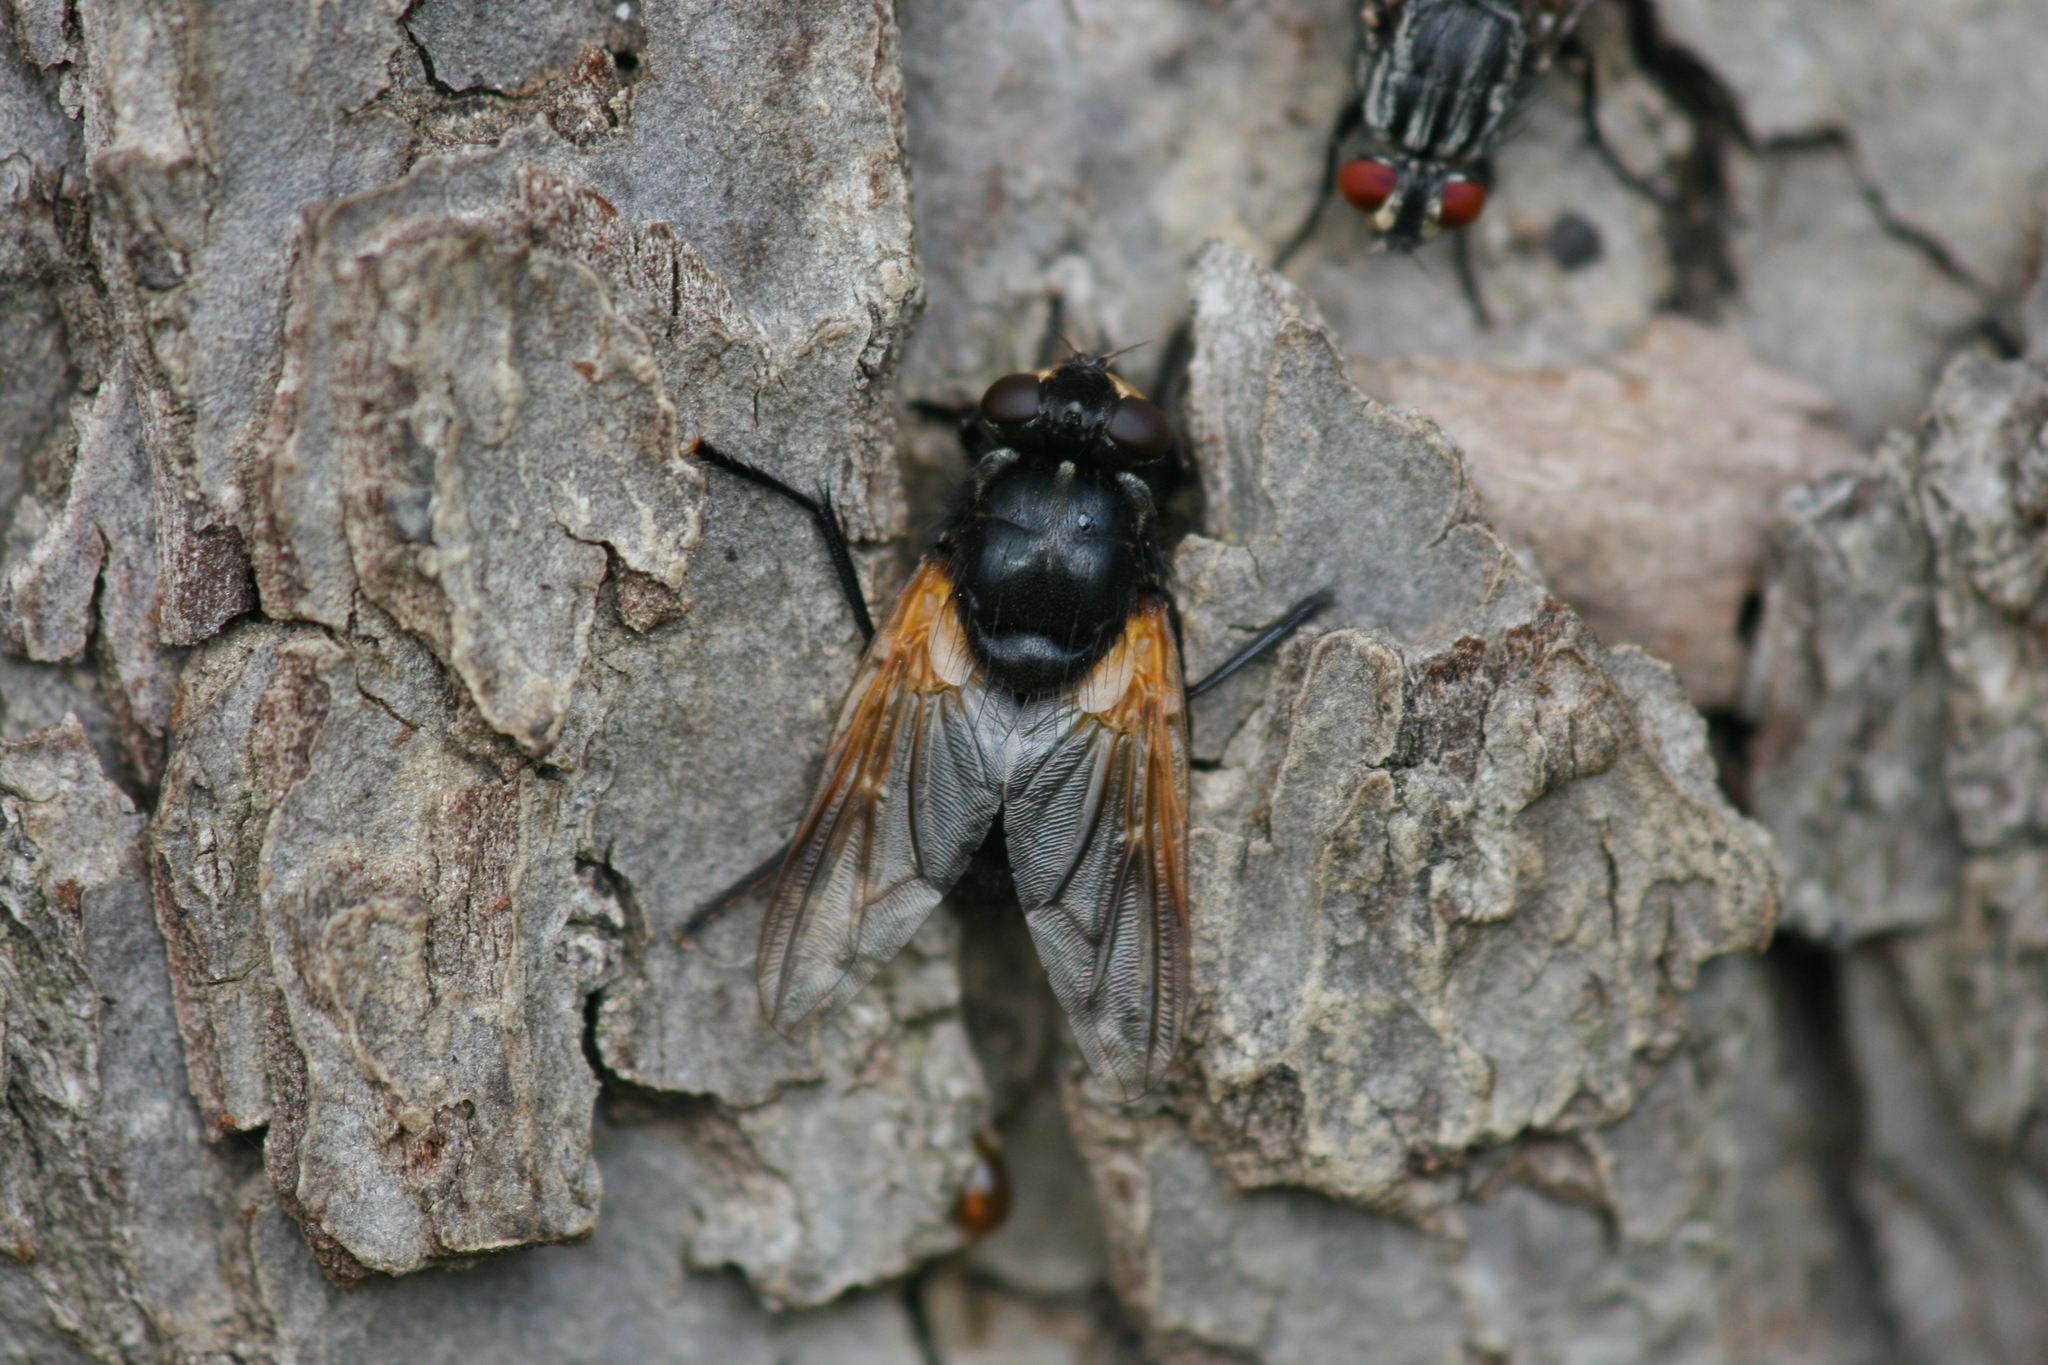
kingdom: Animalia
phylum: Arthropoda
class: Insecta
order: Diptera
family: Muscidae
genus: Mesembrina
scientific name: Mesembrina meridiana
